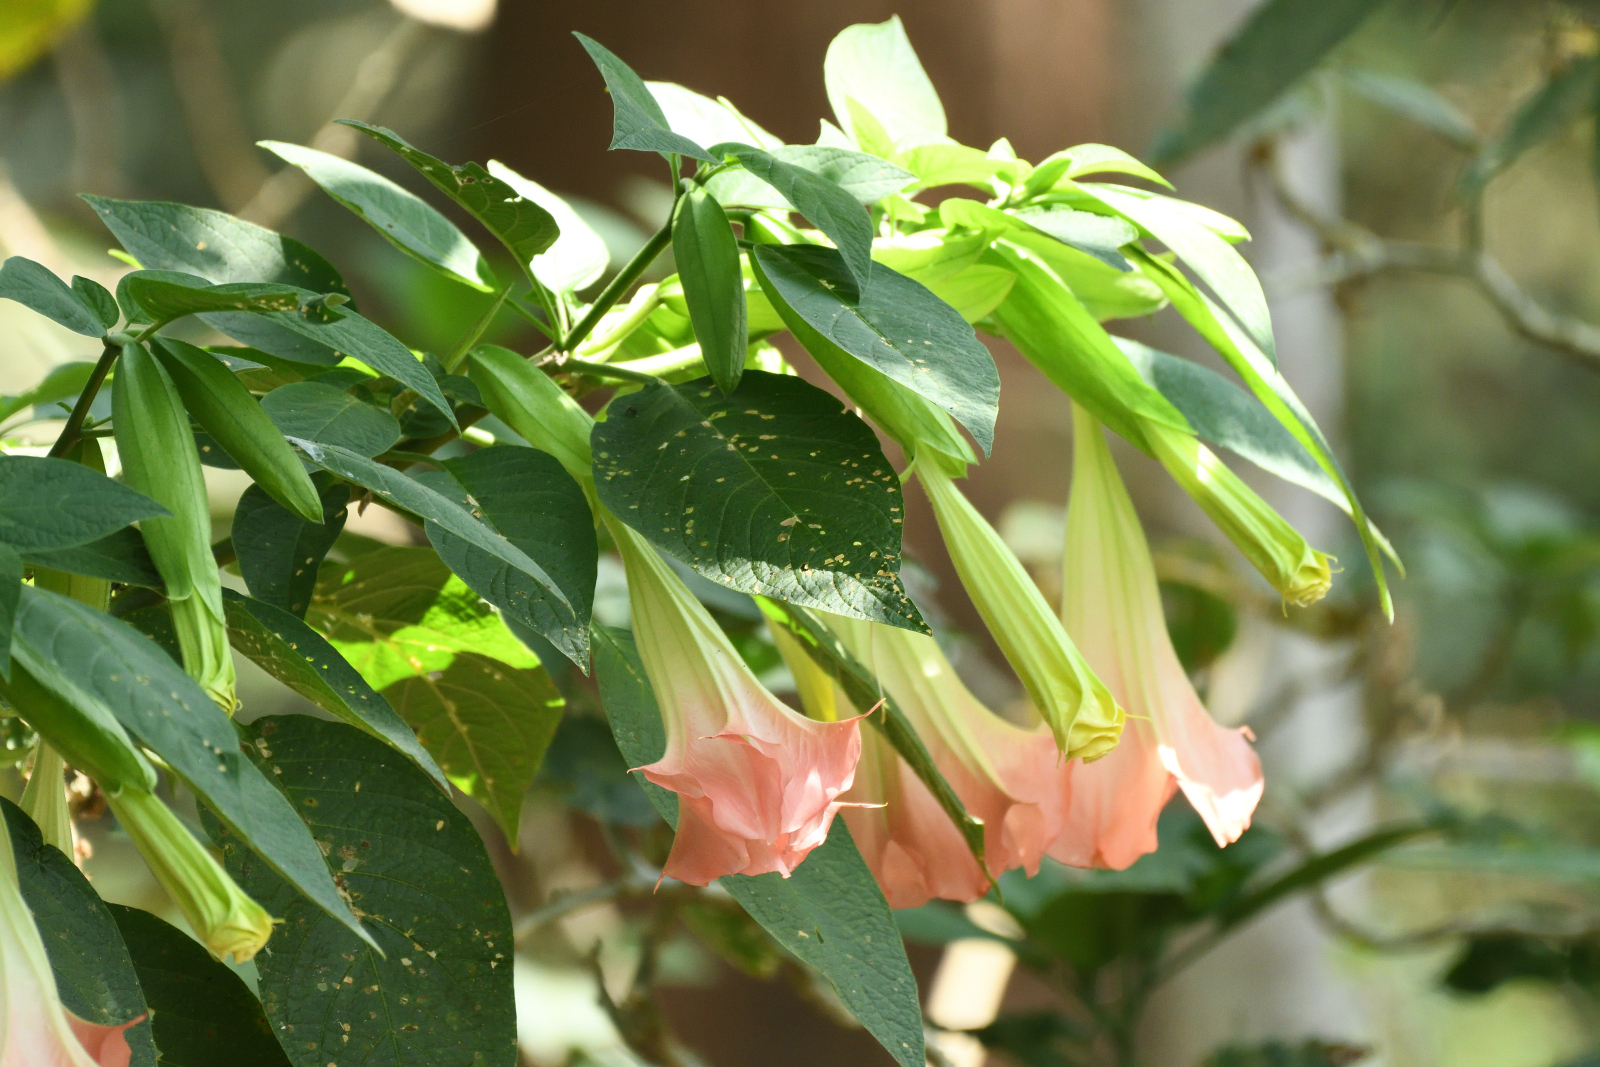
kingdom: Plantae
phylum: Tracheophyta
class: Magnoliopsida
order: Solanales
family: Solanaceae
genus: Brugmansia
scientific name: Brugmansia insignis
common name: Pink angel's-trumpet
